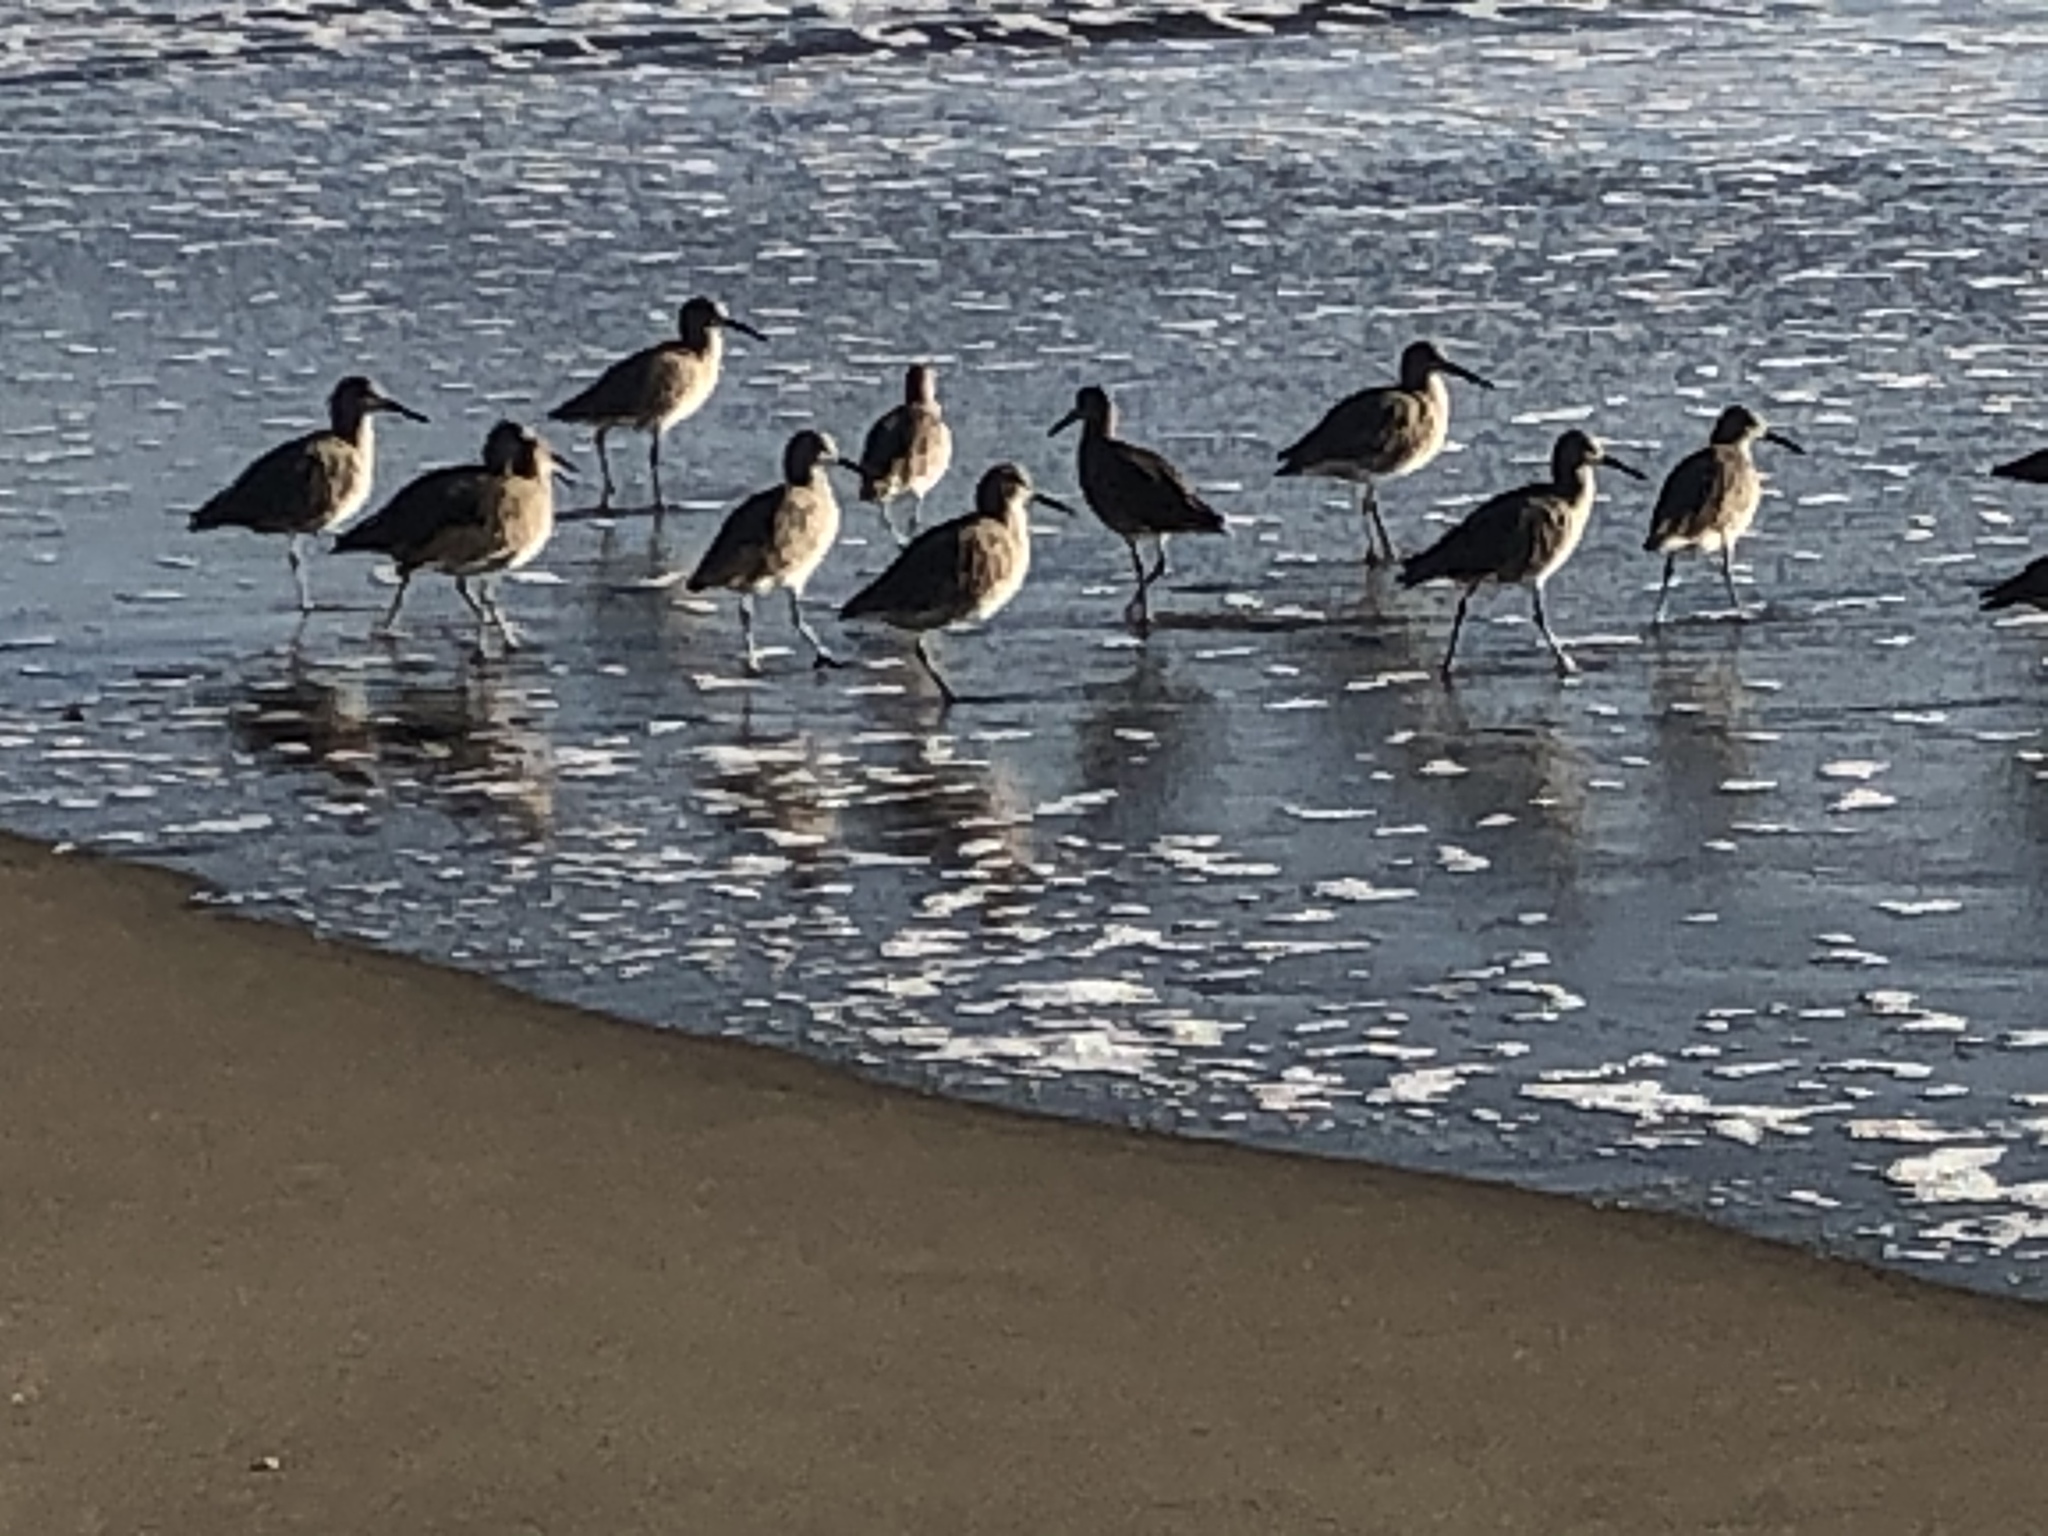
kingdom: Animalia
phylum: Chordata
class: Aves
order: Charadriiformes
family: Scolopacidae
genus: Tringa
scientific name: Tringa semipalmata
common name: Willet
